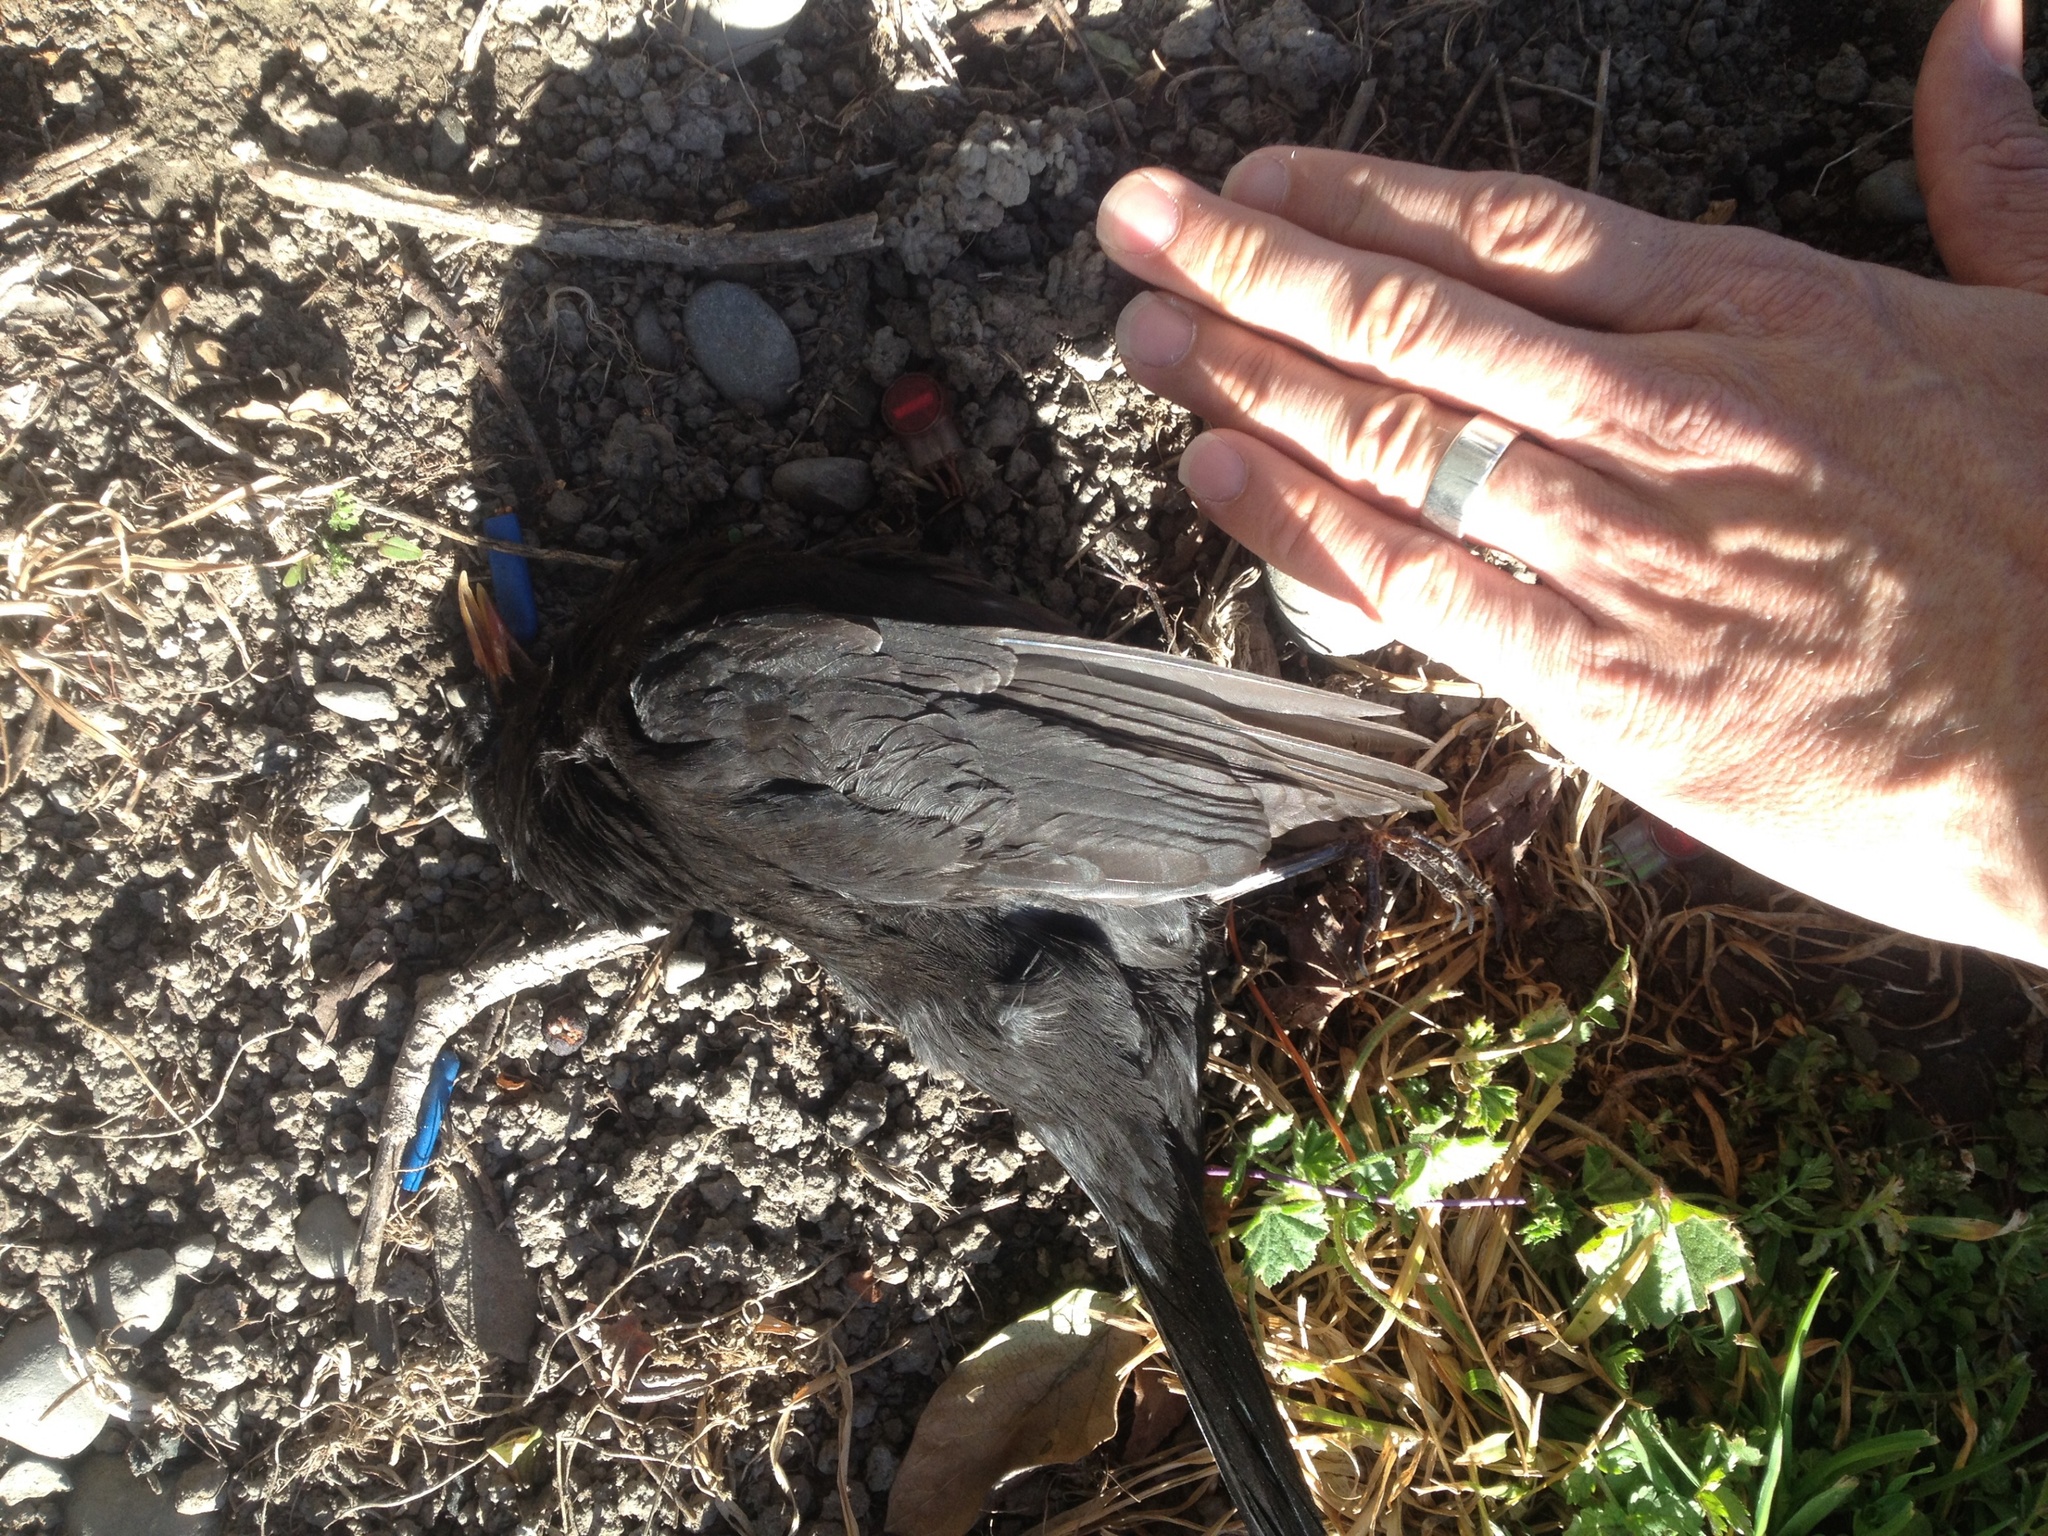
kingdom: Animalia
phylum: Chordata
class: Aves
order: Passeriformes
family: Turdidae
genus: Turdus
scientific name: Turdus merula
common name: Common blackbird
